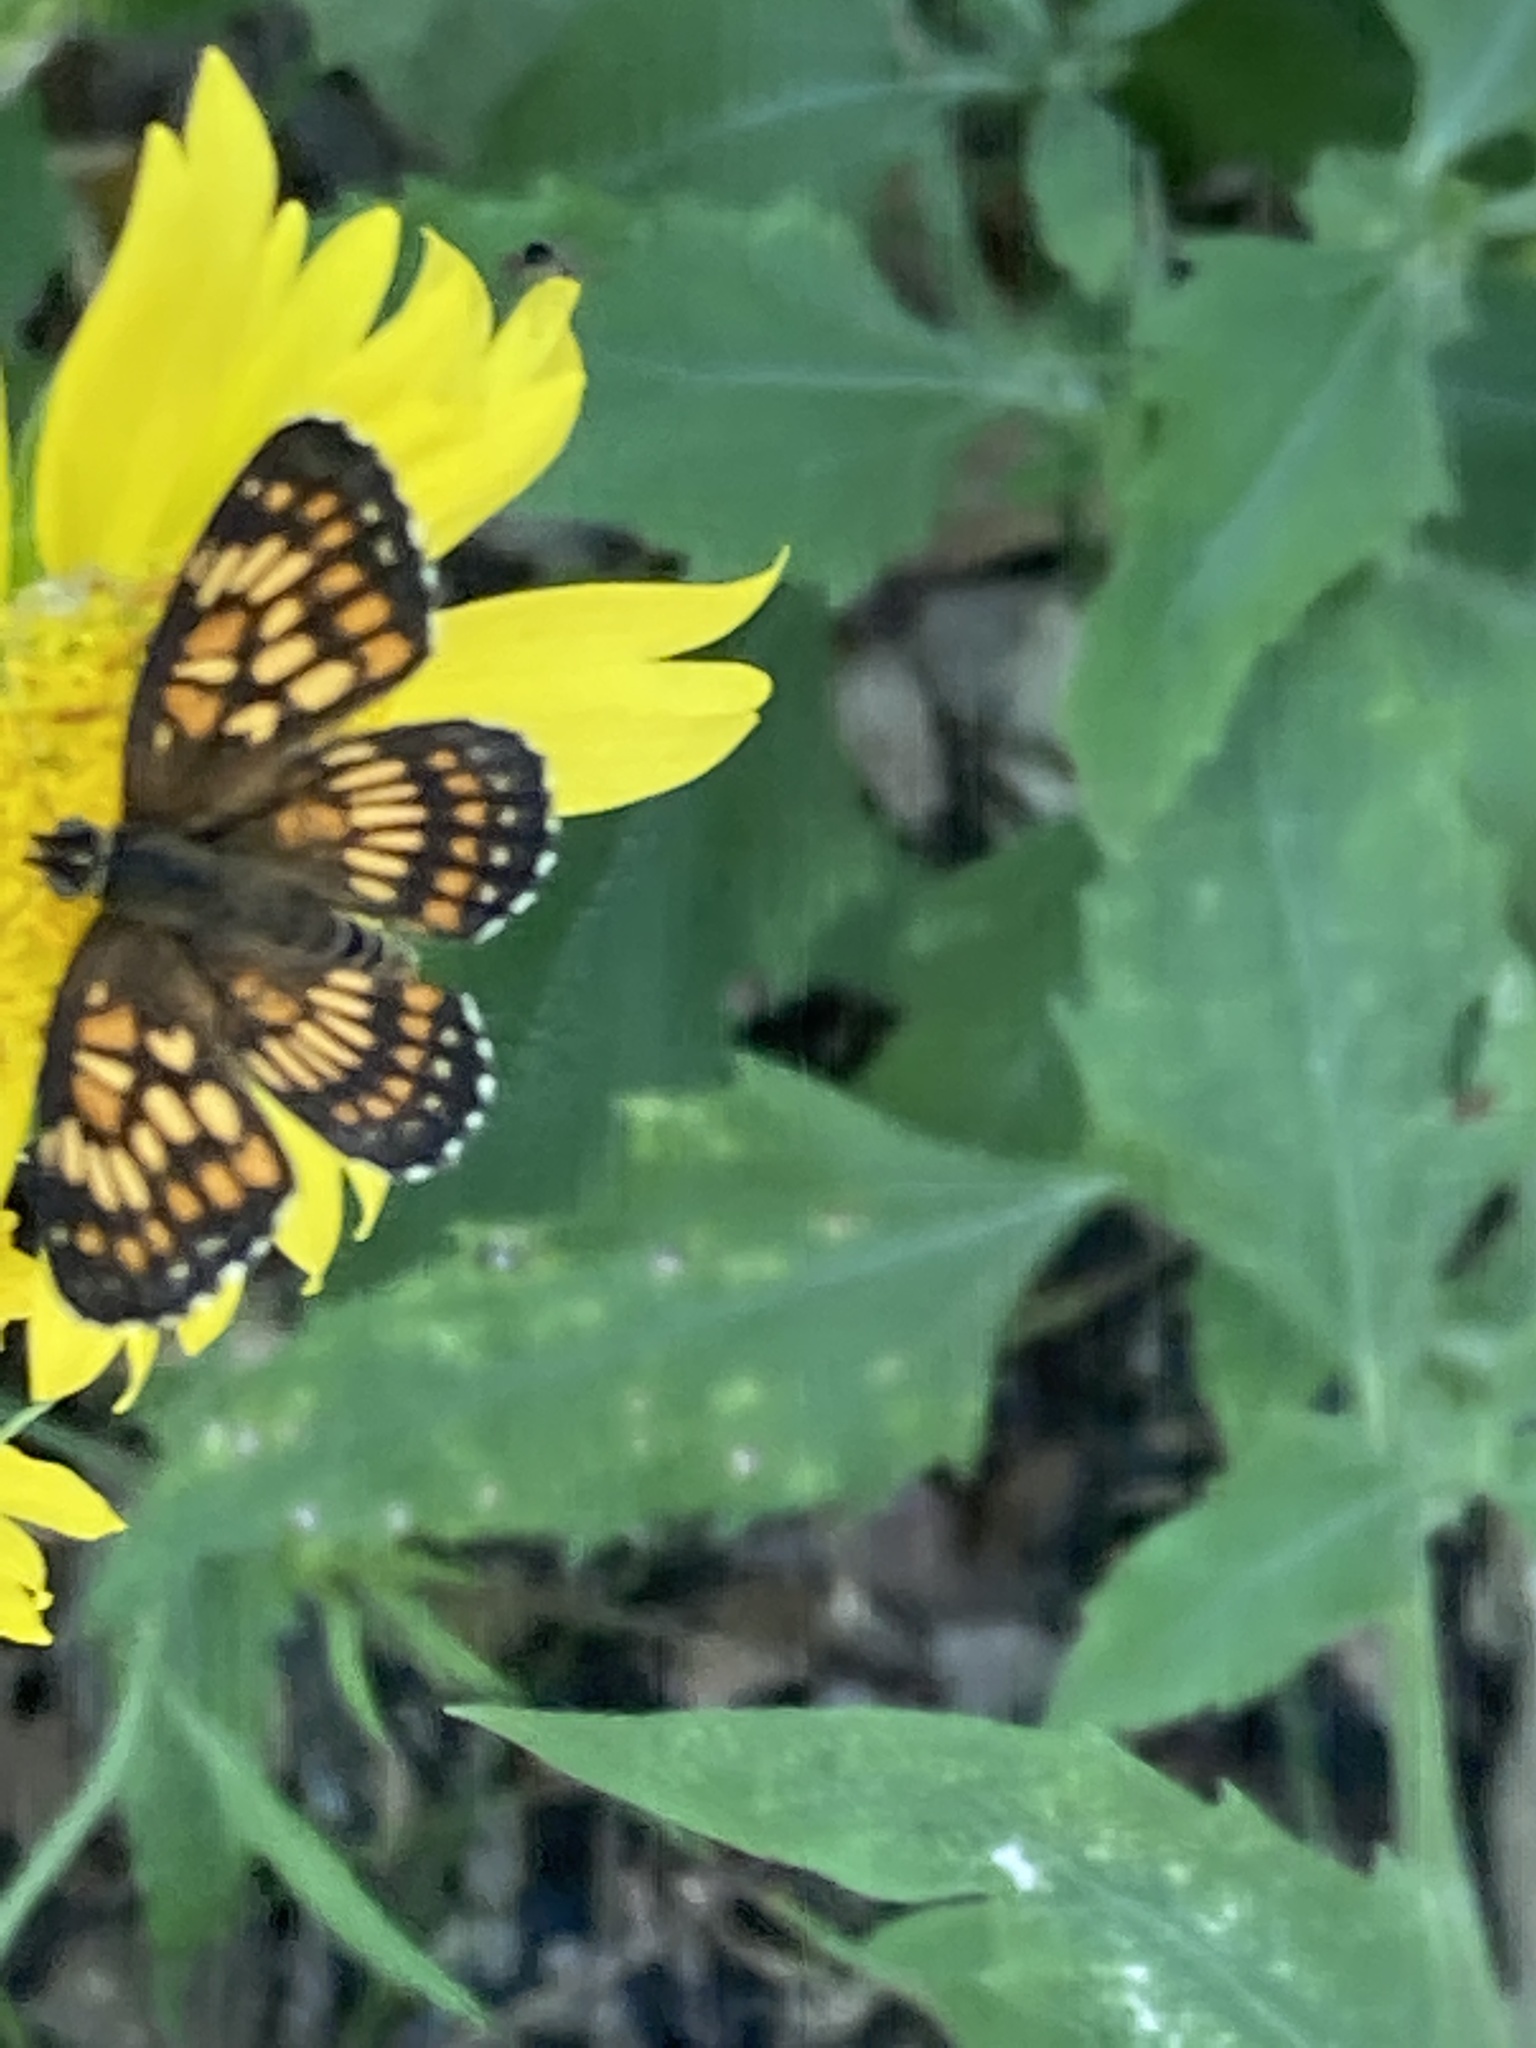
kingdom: Animalia
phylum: Arthropoda
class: Insecta
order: Lepidoptera
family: Nymphalidae
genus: Thessalia
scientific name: Thessalia theona
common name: Nymphalid moth
